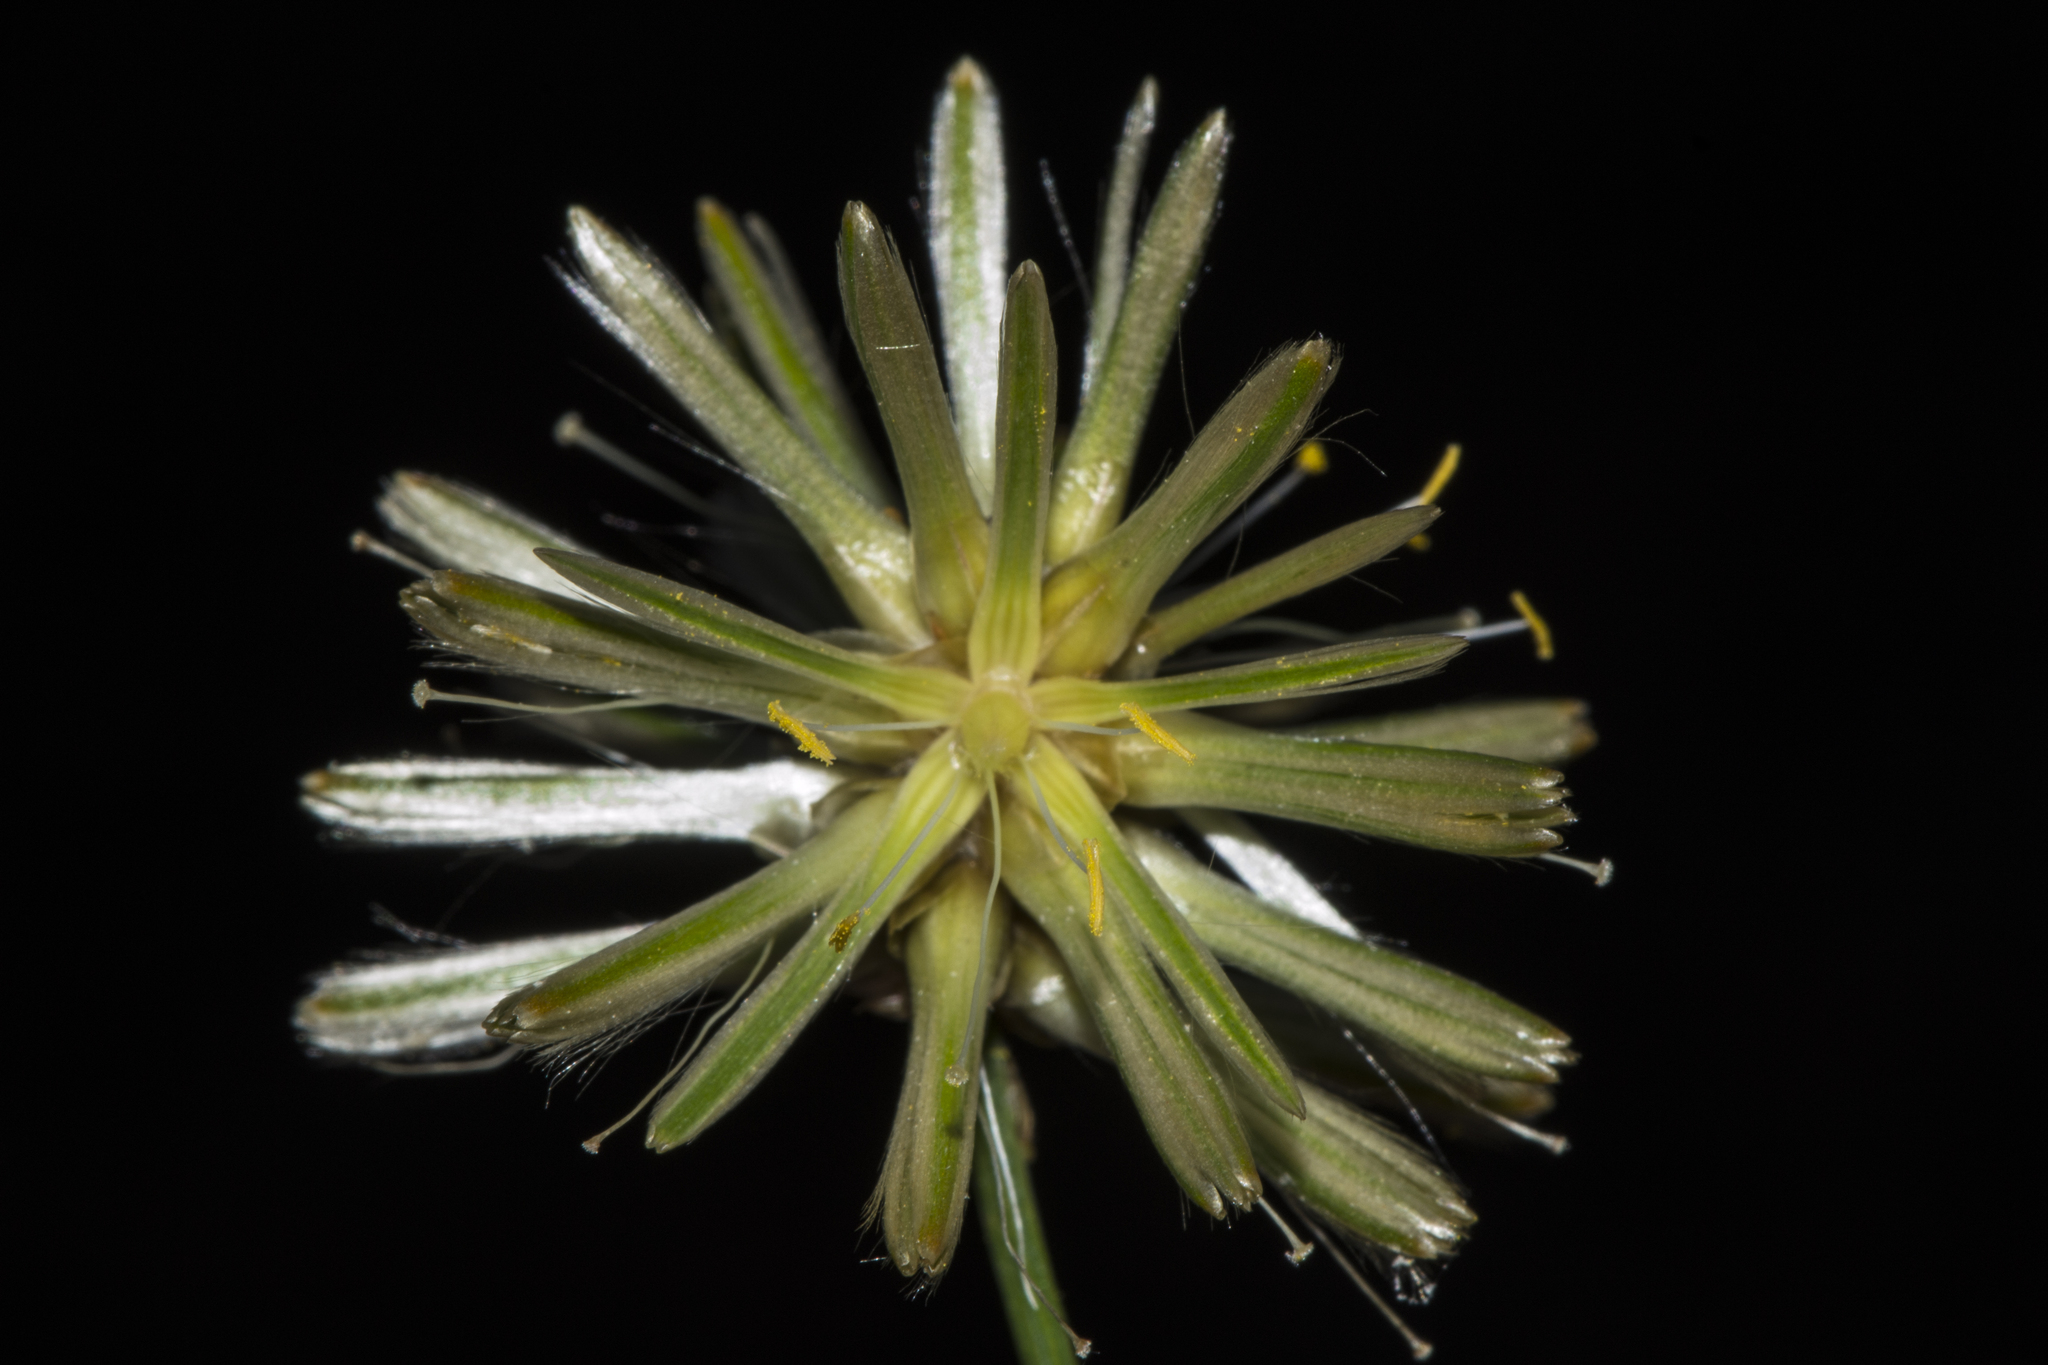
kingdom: Plantae
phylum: Tracheophyta
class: Magnoliopsida
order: Caryophyllales
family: Amaranthaceae
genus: Ptilotus
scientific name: Ptilotus fusiformis
